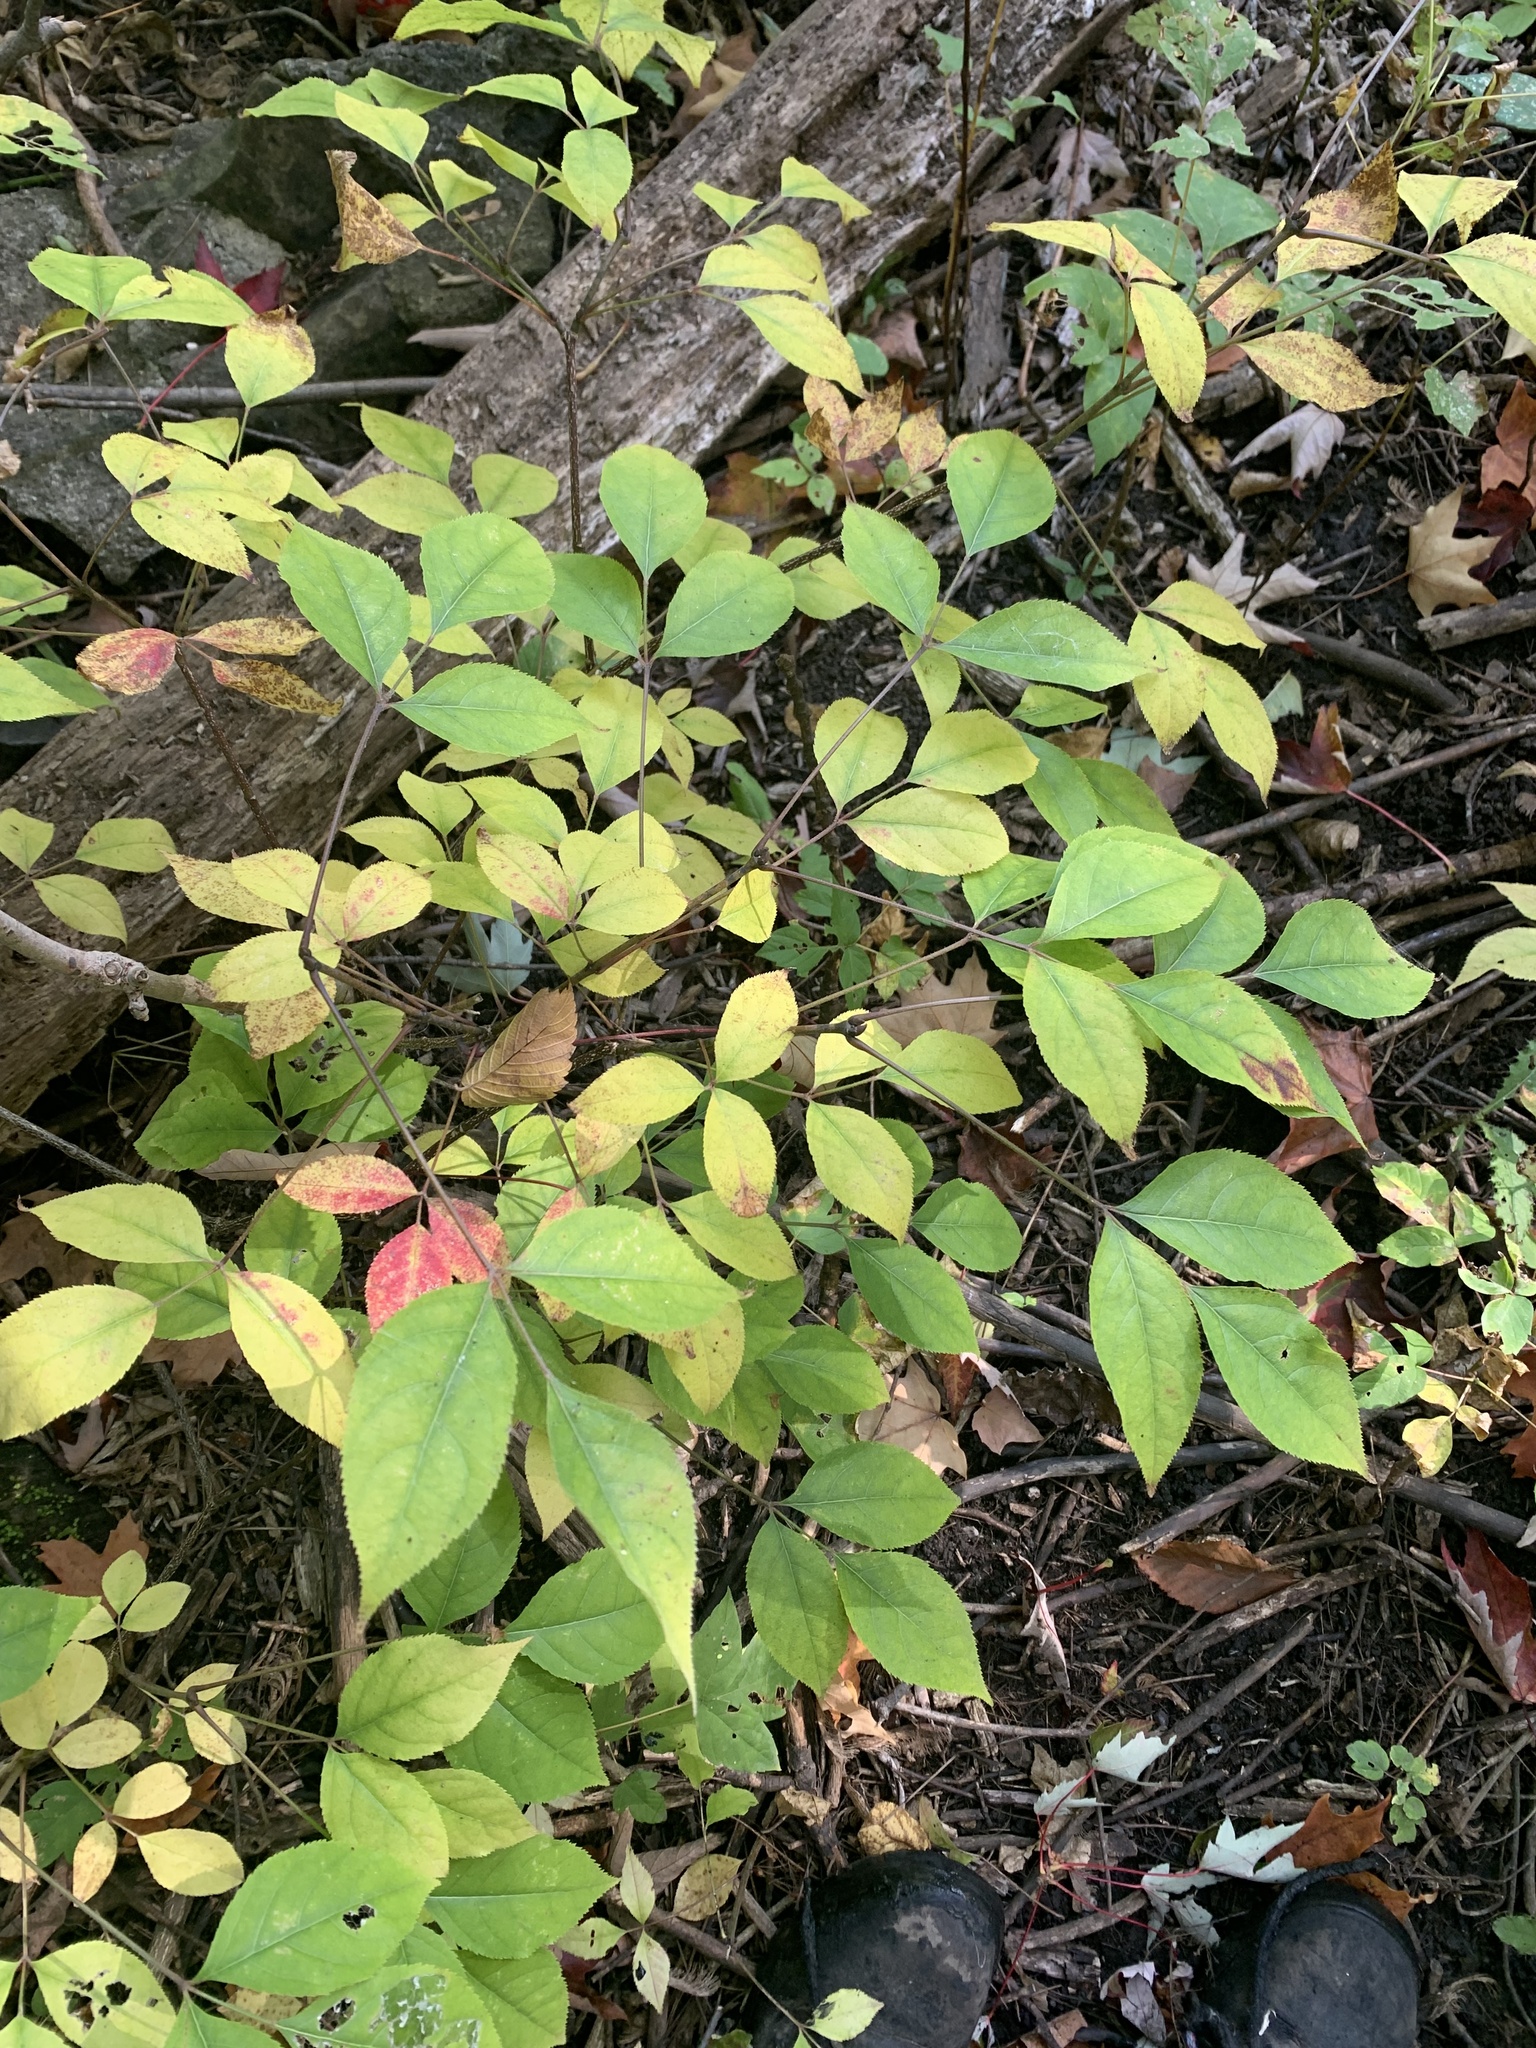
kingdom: Plantae
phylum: Tracheophyta
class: Magnoliopsida
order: Crossosomatales
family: Staphyleaceae
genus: Staphylea
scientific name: Staphylea trifolia
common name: American bladdernut
